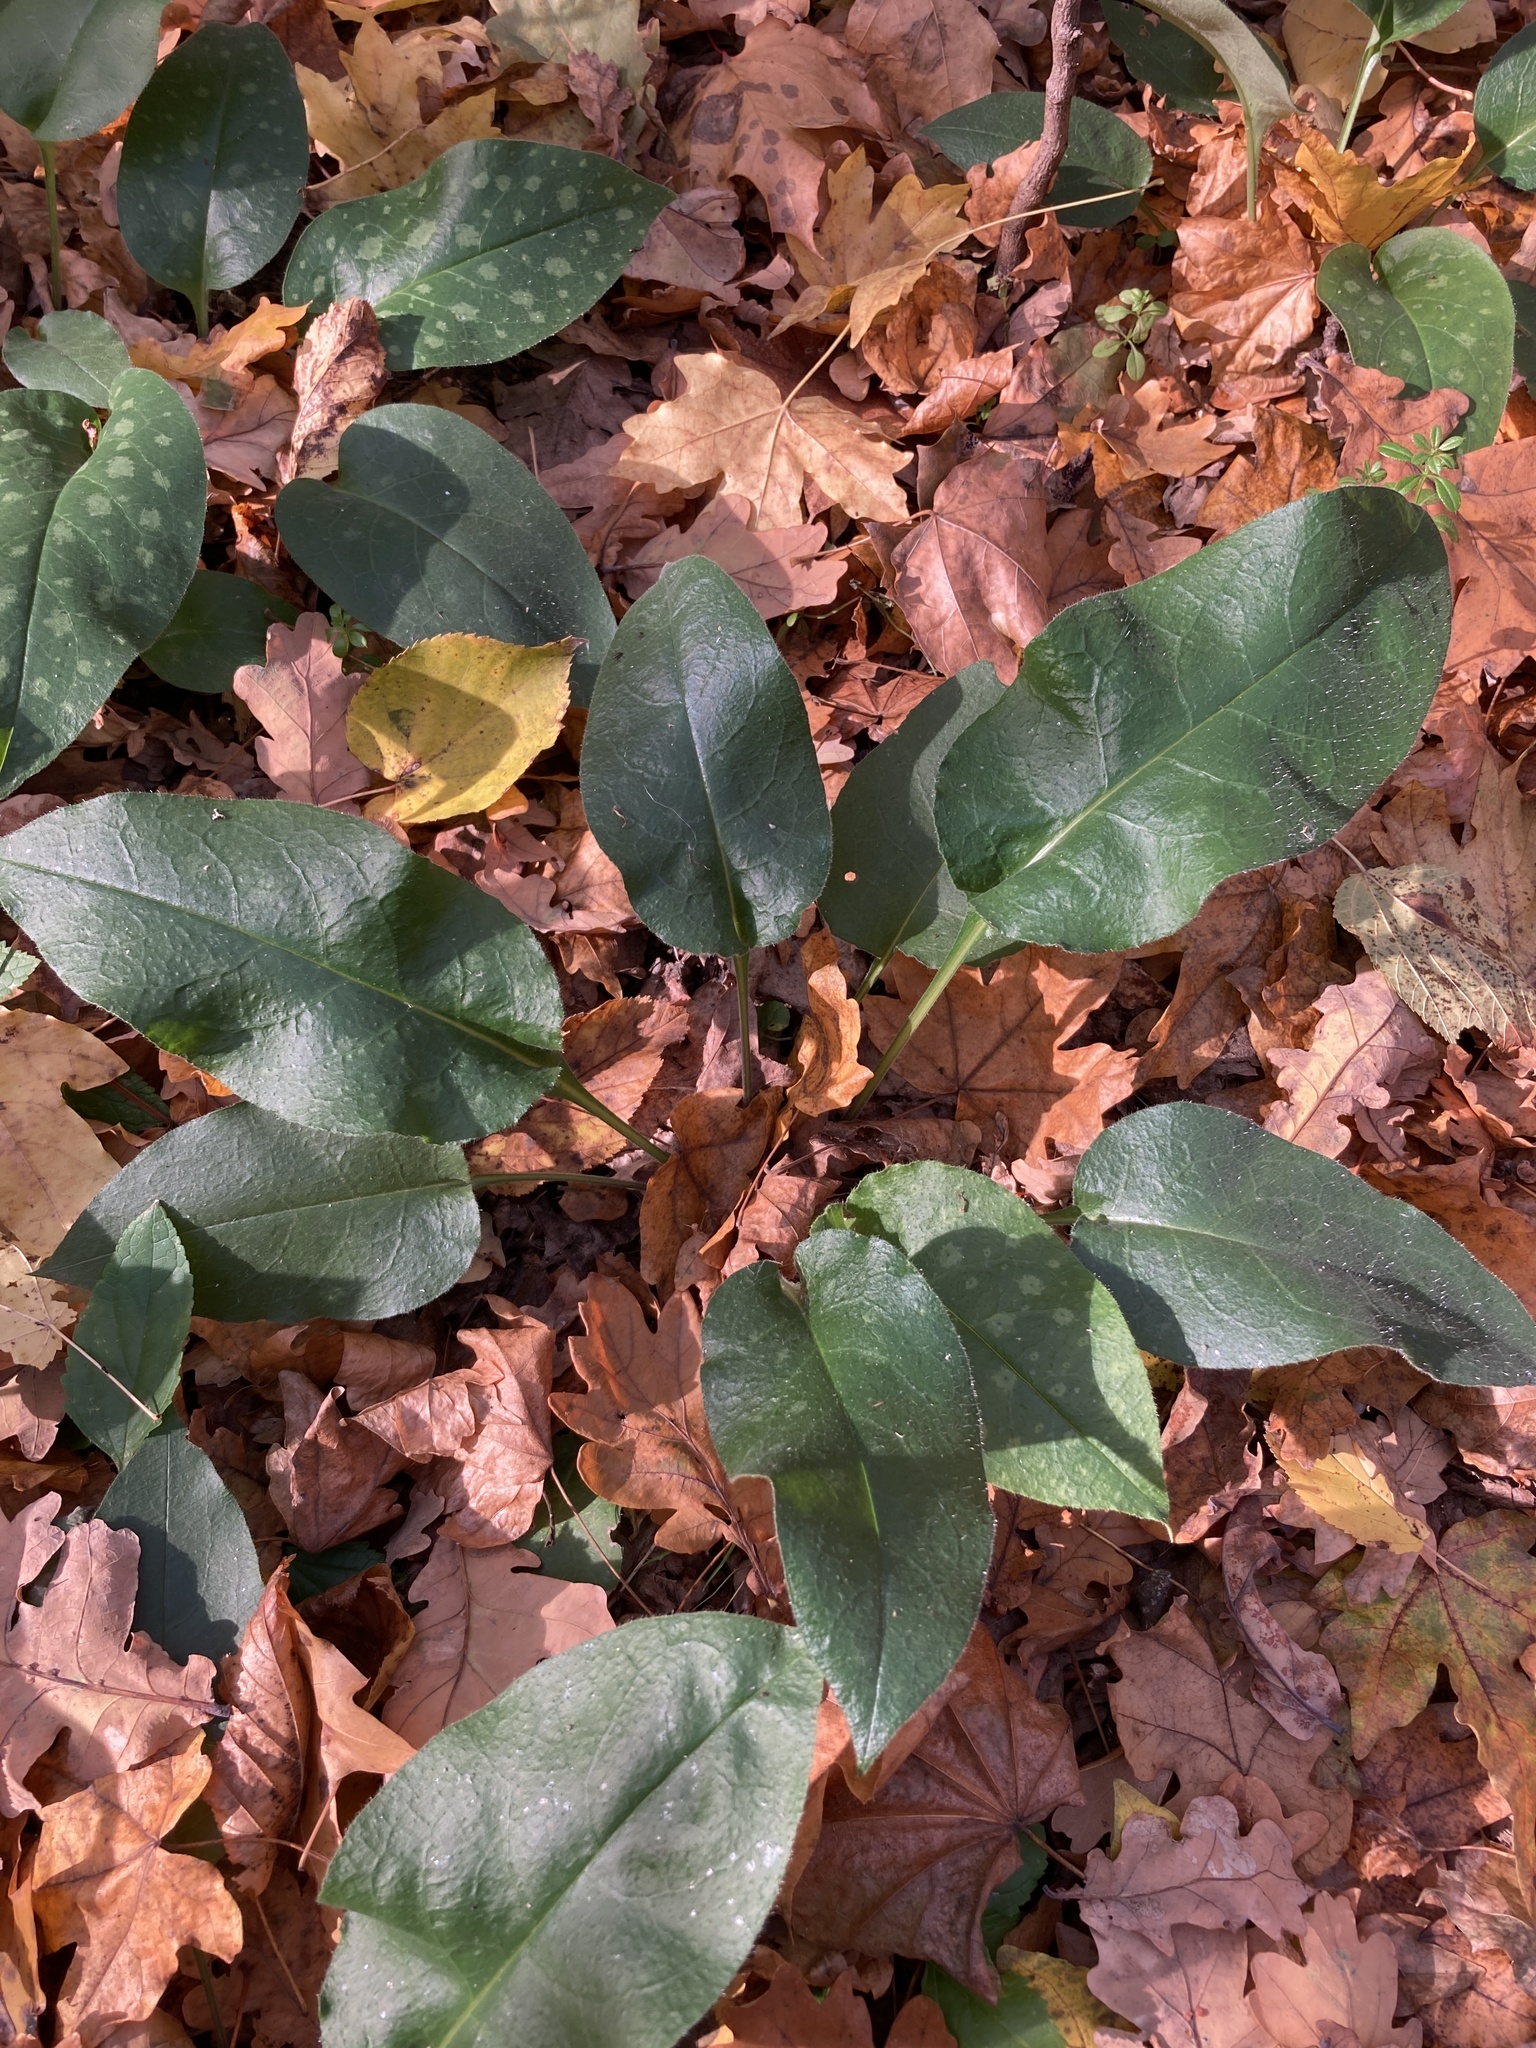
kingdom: Plantae
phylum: Tracheophyta
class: Magnoliopsida
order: Boraginales
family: Boraginaceae
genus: Pulmonaria
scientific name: Pulmonaria obscura
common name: Suffolk lungwort
